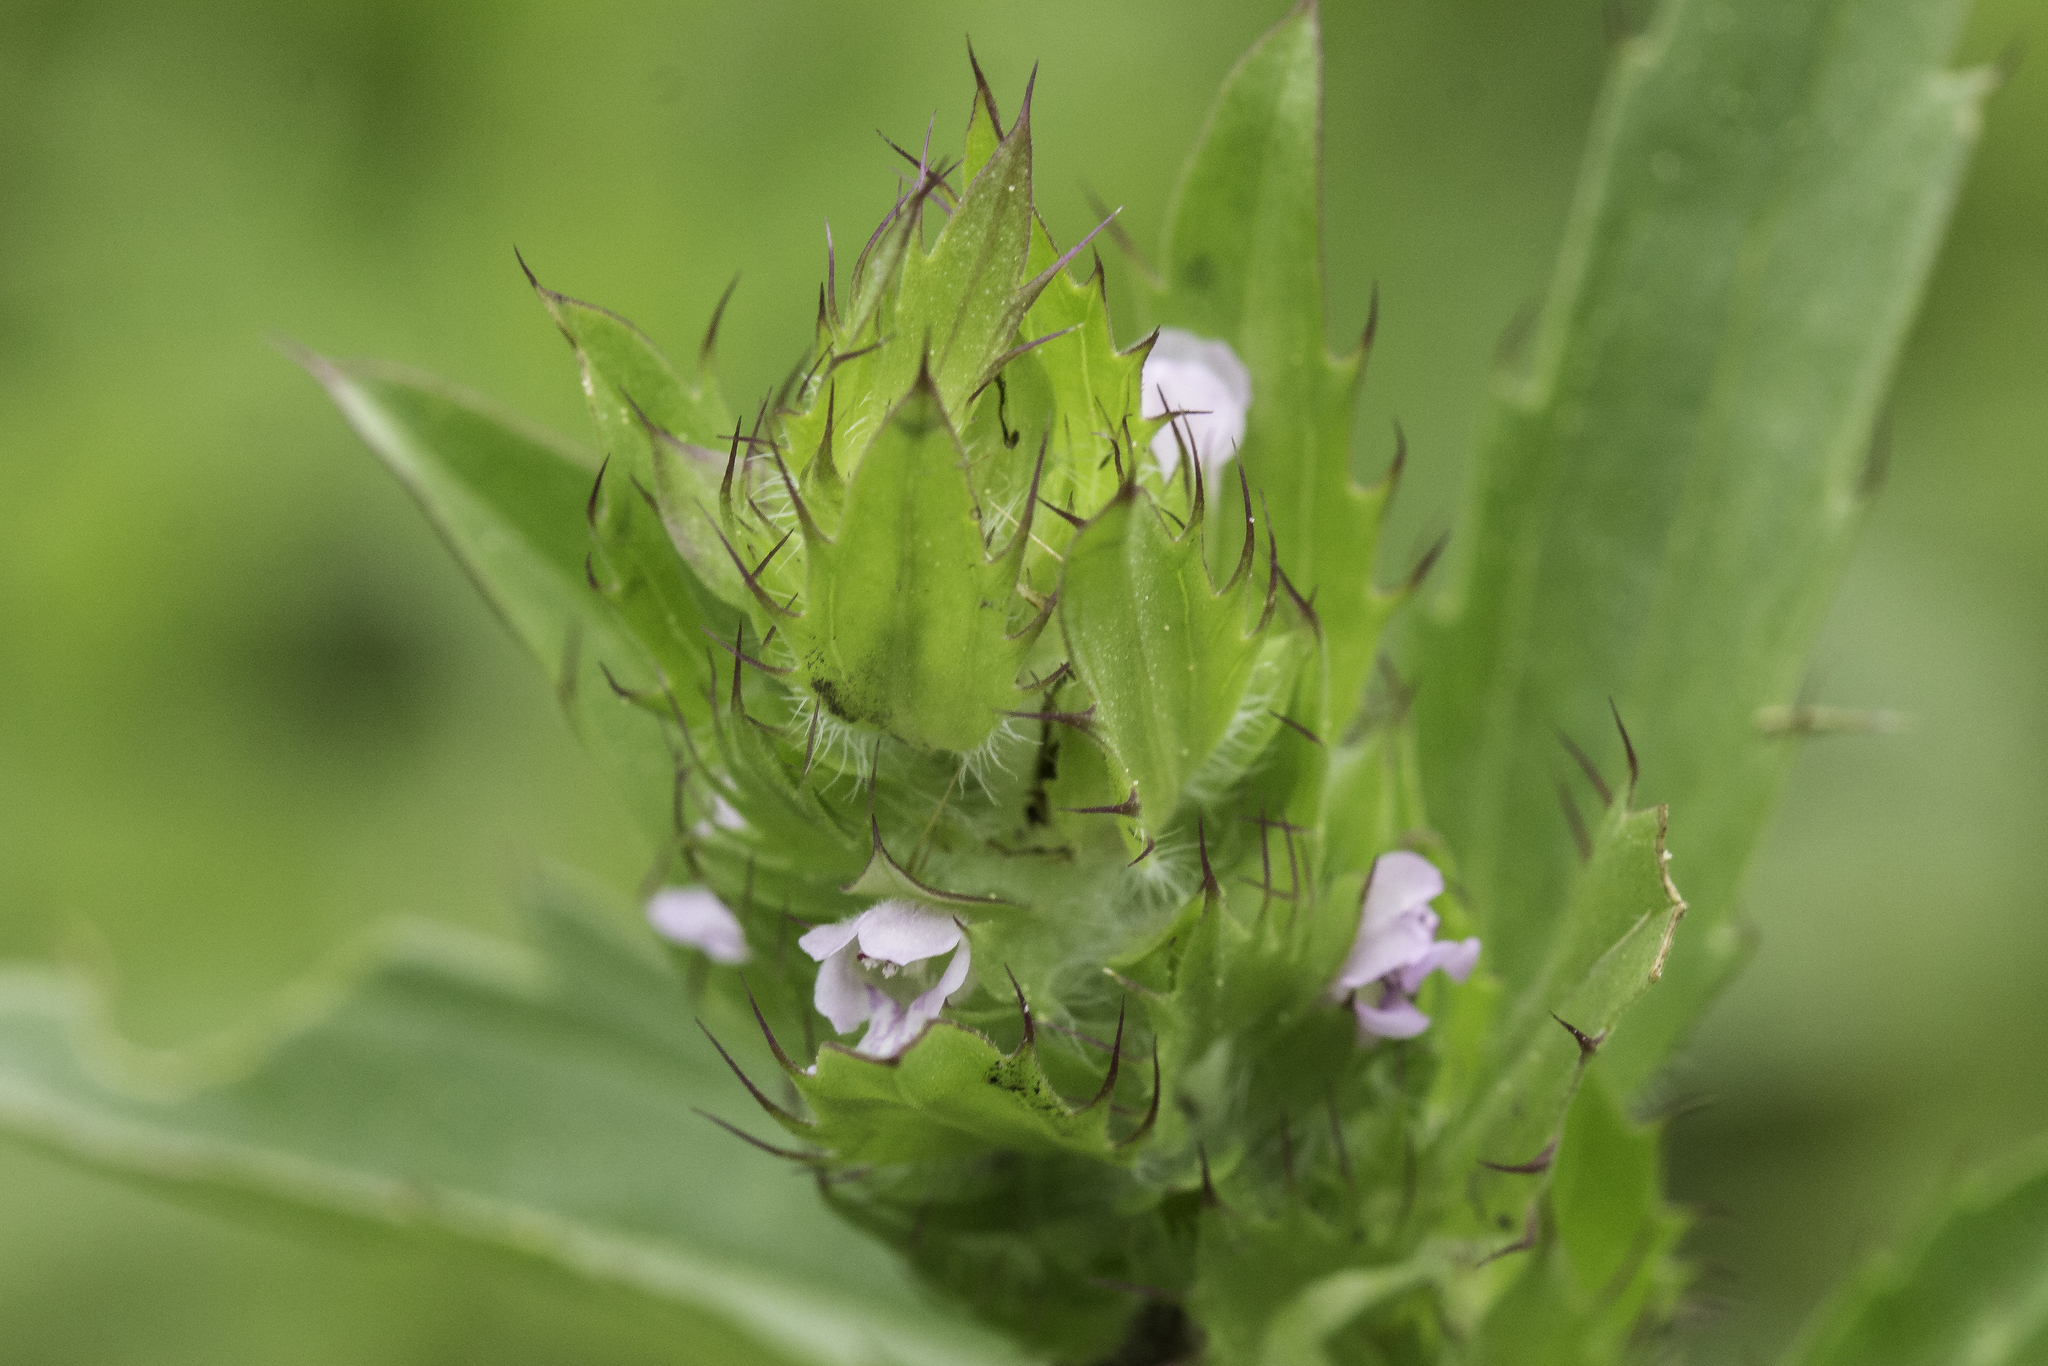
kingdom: Plantae
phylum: Tracheophyta
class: Magnoliopsida
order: Lamiales
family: Lamiaceae
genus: Dracocephalum
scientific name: Dracocephalum parviflorum
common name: American dragonhead
